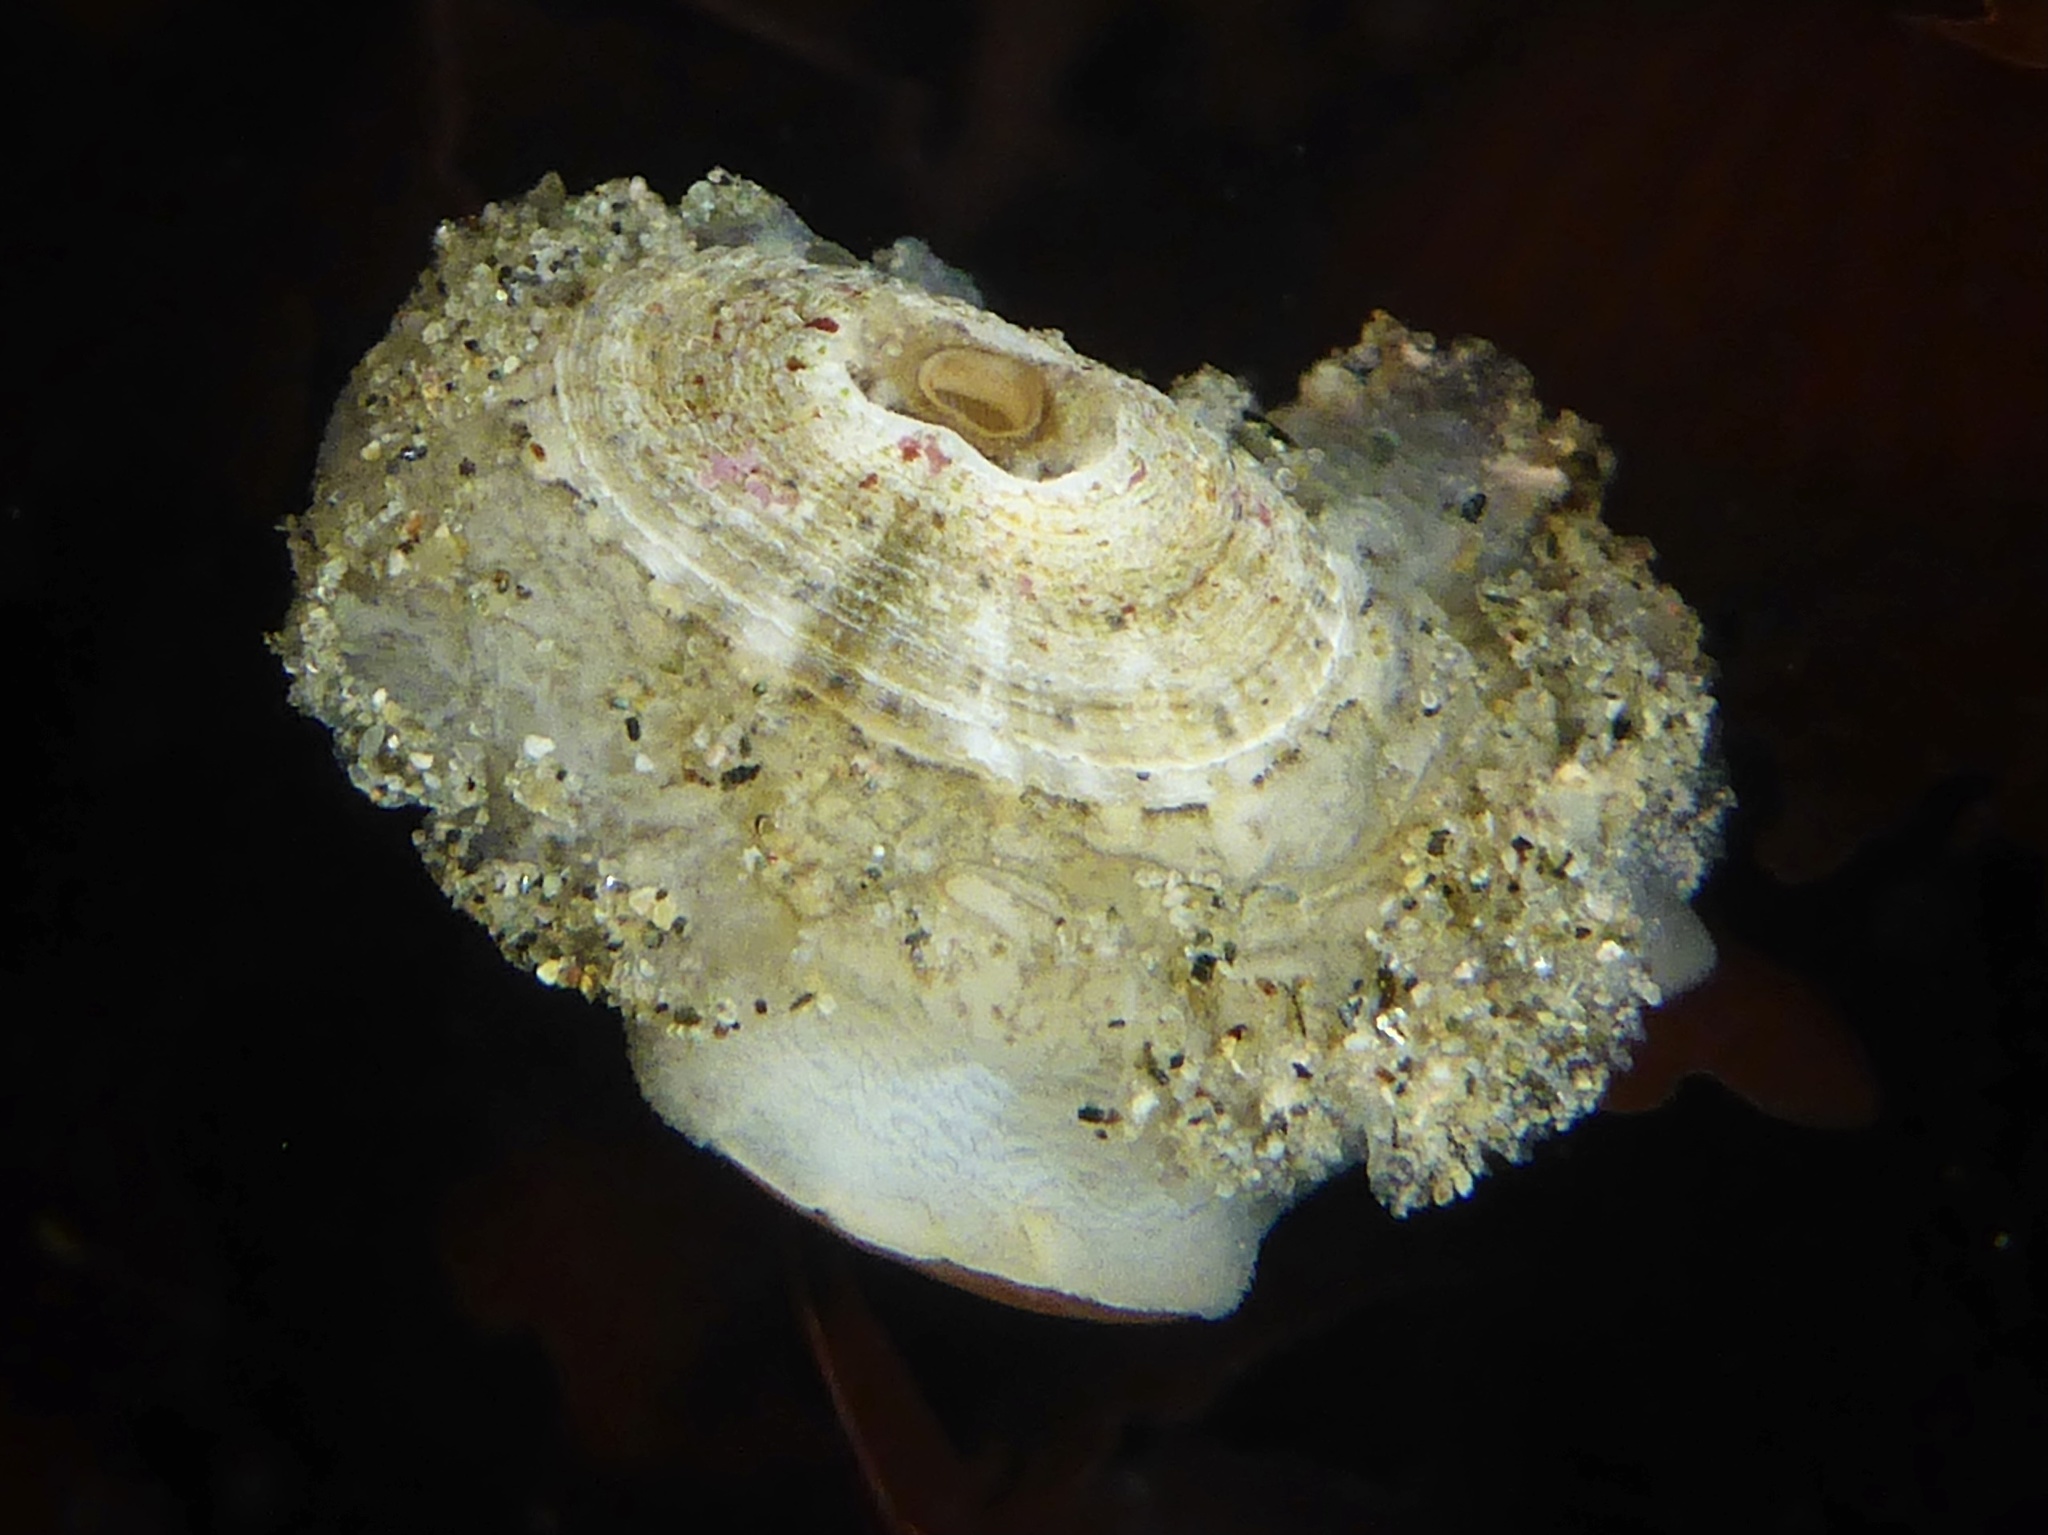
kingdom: Animalia
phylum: Mollusca
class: Gastropoda
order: Lepetellida
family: Fissurellidae
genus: Fissurellidea
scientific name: Fissurellidea bimaculata
